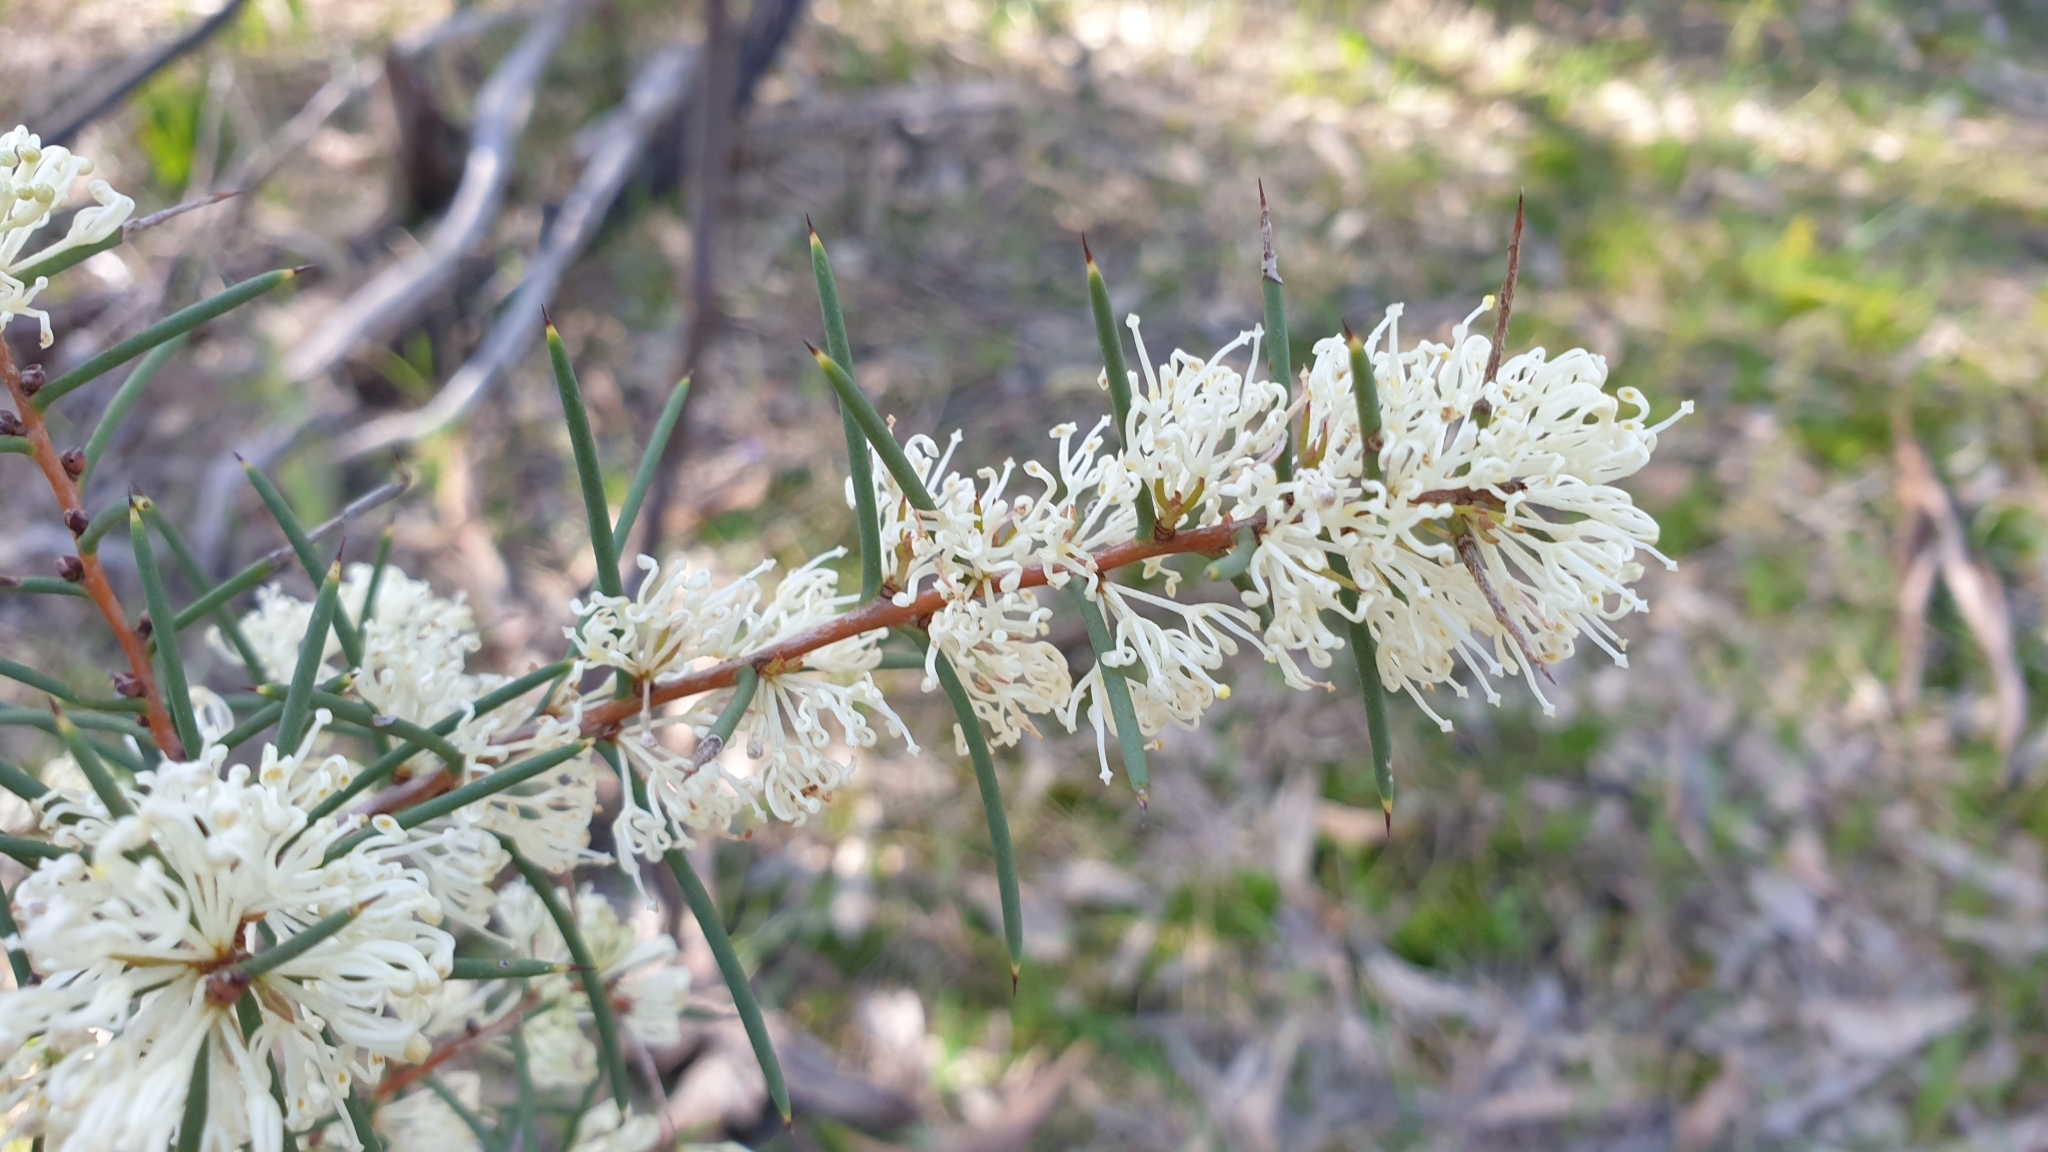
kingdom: Plantae
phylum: Tracheophyta
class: Magnoliopsida
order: Proteales
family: Proteaceae
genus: Hakea
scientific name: Hakea rugosa
